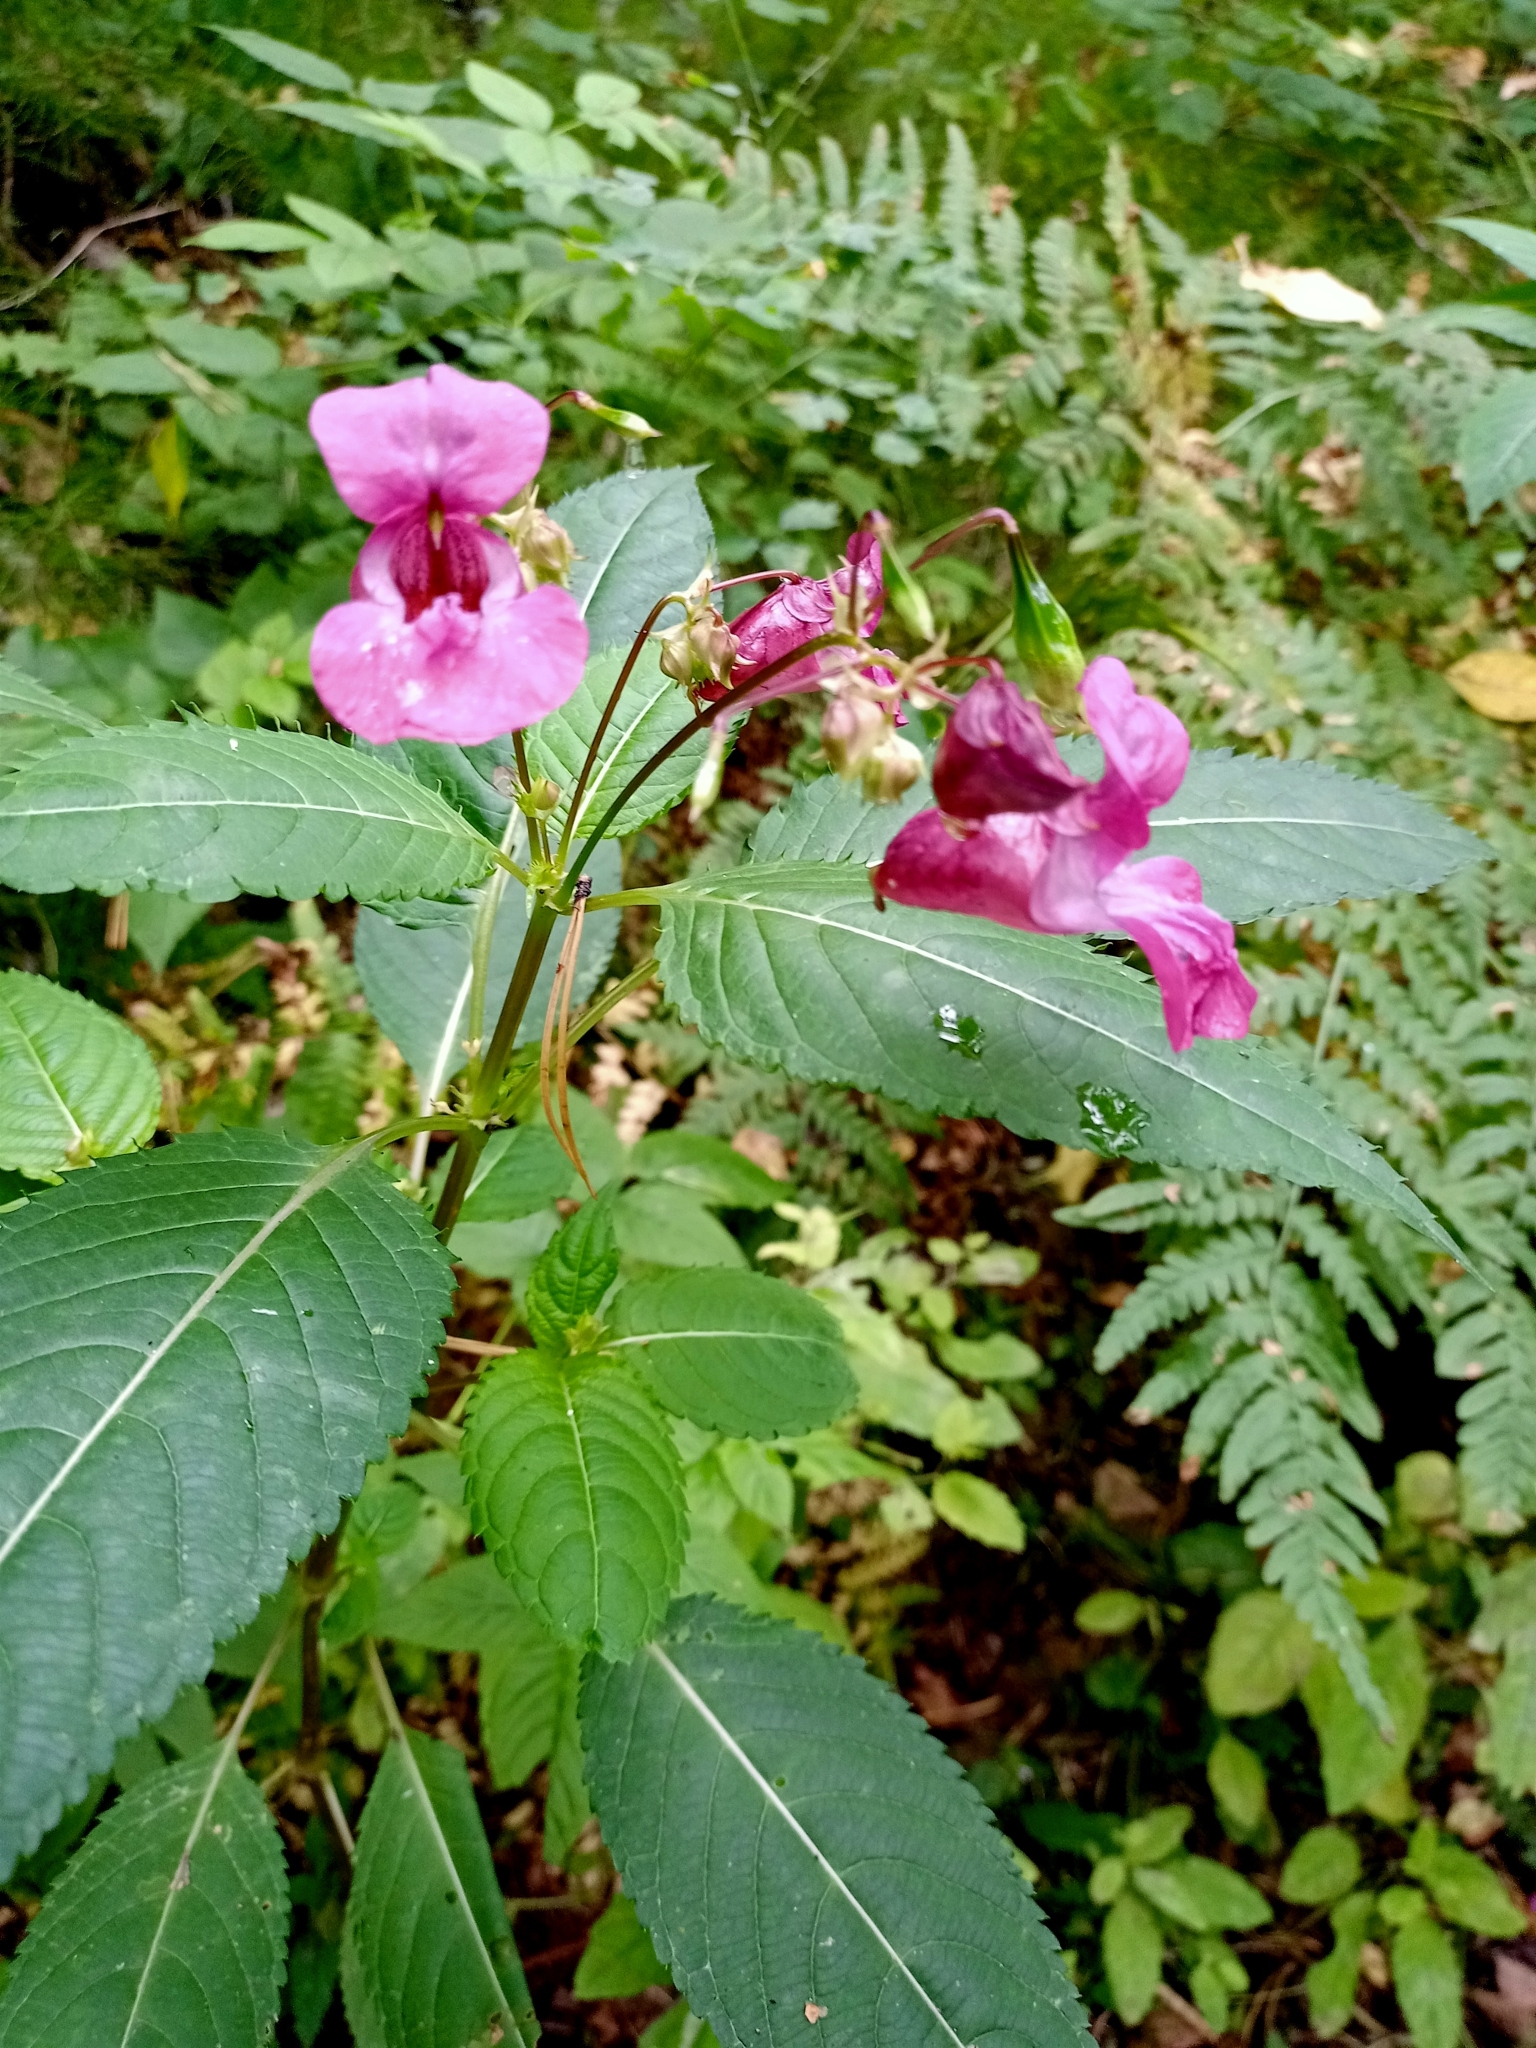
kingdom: Plantae
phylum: Tracheophyta
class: Magnoliopsida
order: Ericales
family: Balsaminaceae
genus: Impatiens
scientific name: Impatiens glandulifera
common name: Himalayan balsam
